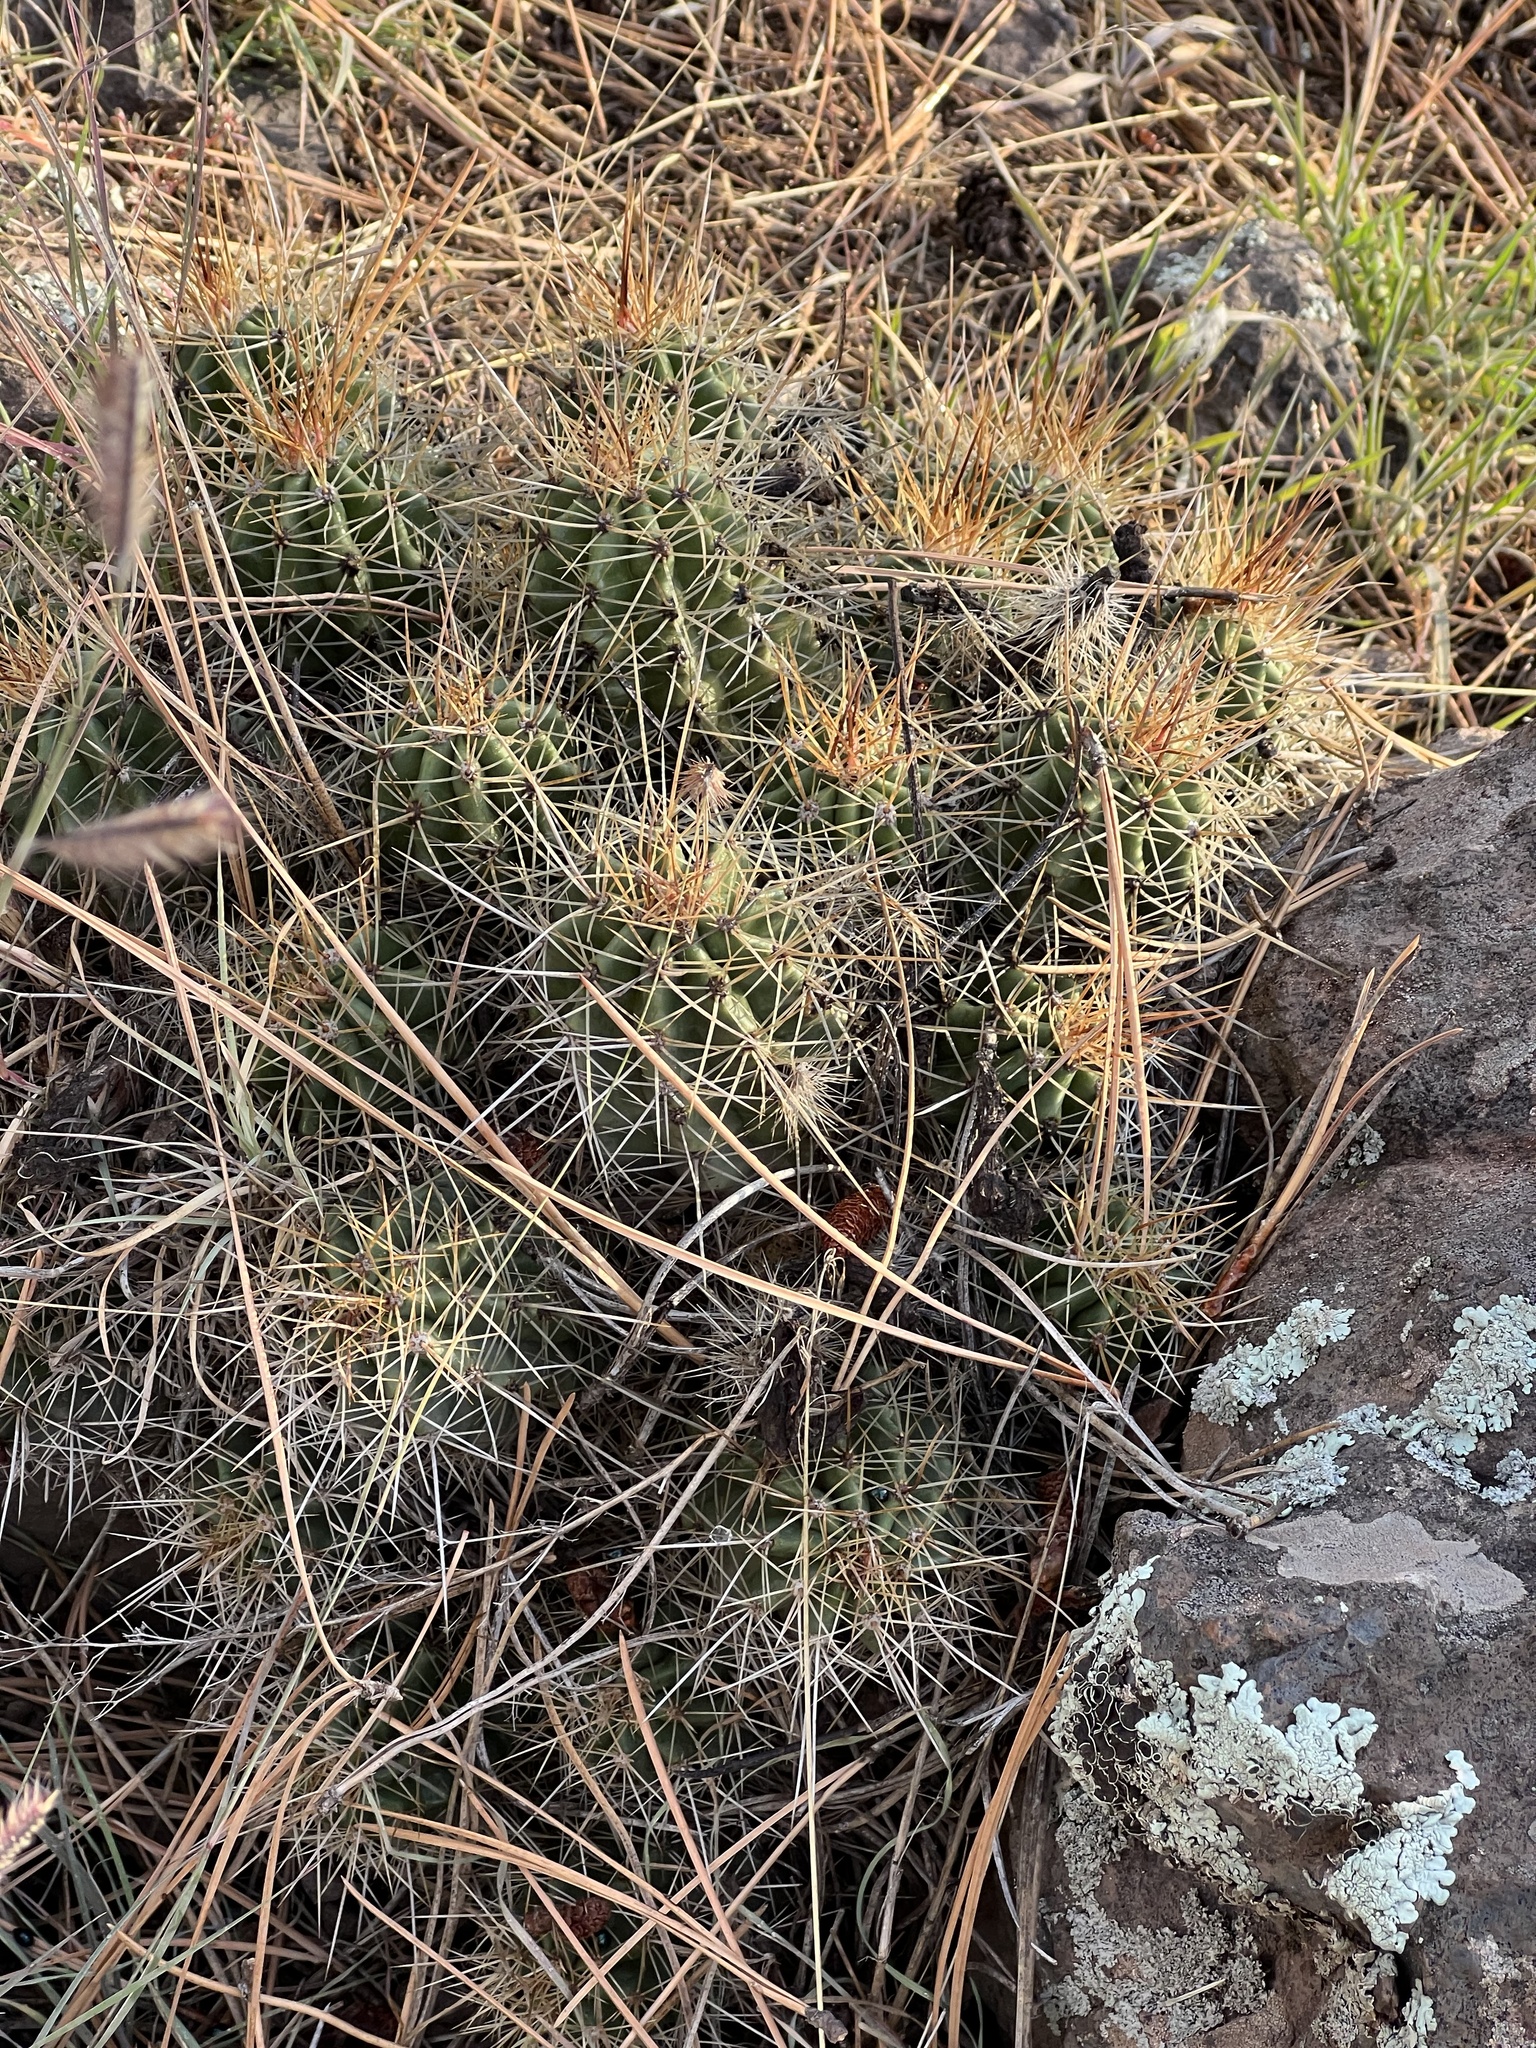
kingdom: Plantae
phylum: Tracheophyta
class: Magnoliopsida
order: Caryophyllales
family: Cactaceae
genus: Echinocereus
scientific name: Echinocereus bakeri
